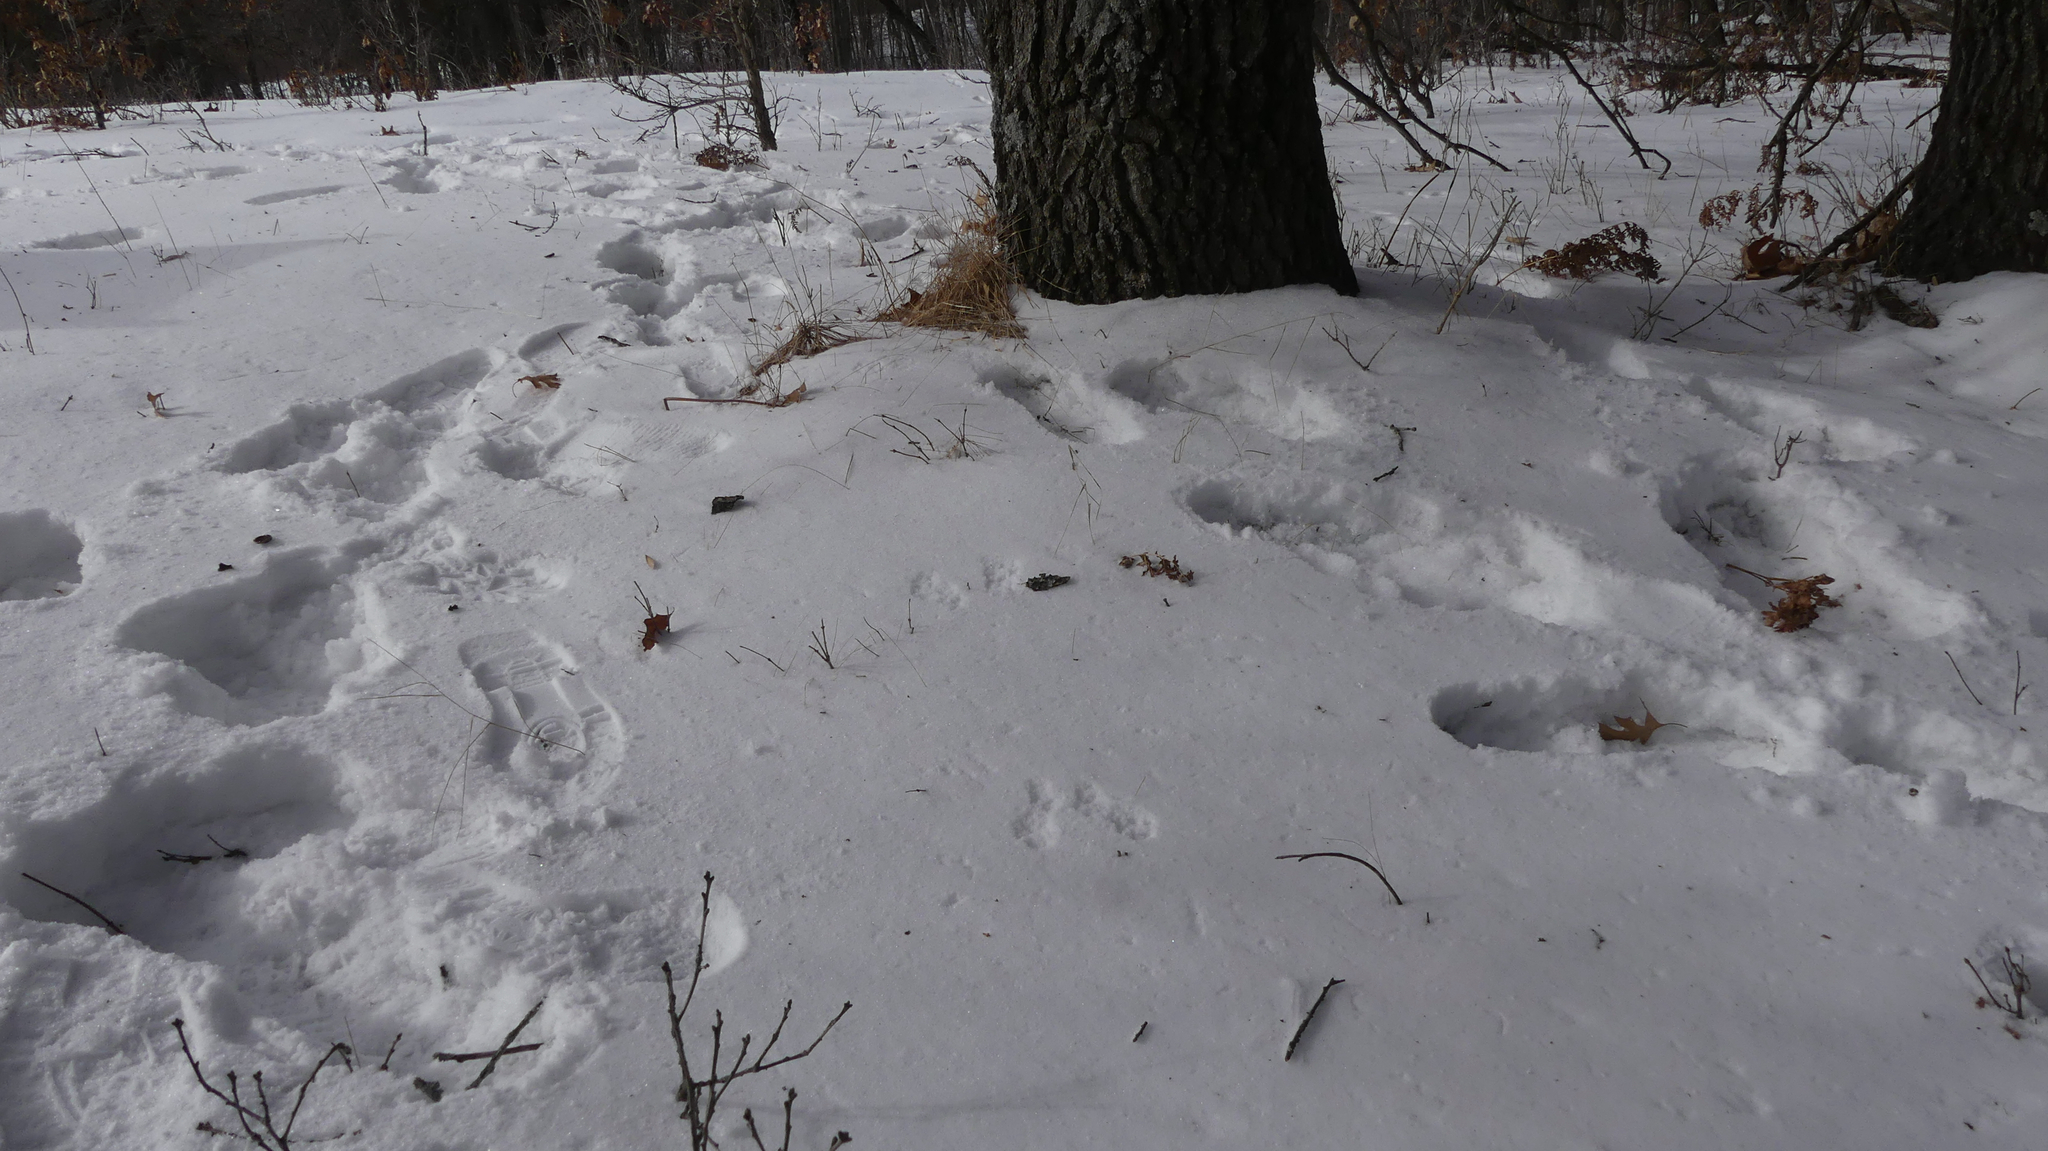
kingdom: Animalia
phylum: Chordata
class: Mammalia
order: Rodentia
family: Sciuridae
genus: Sciurus
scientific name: Sciurus carolinensis
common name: Eastern gray squirrel
